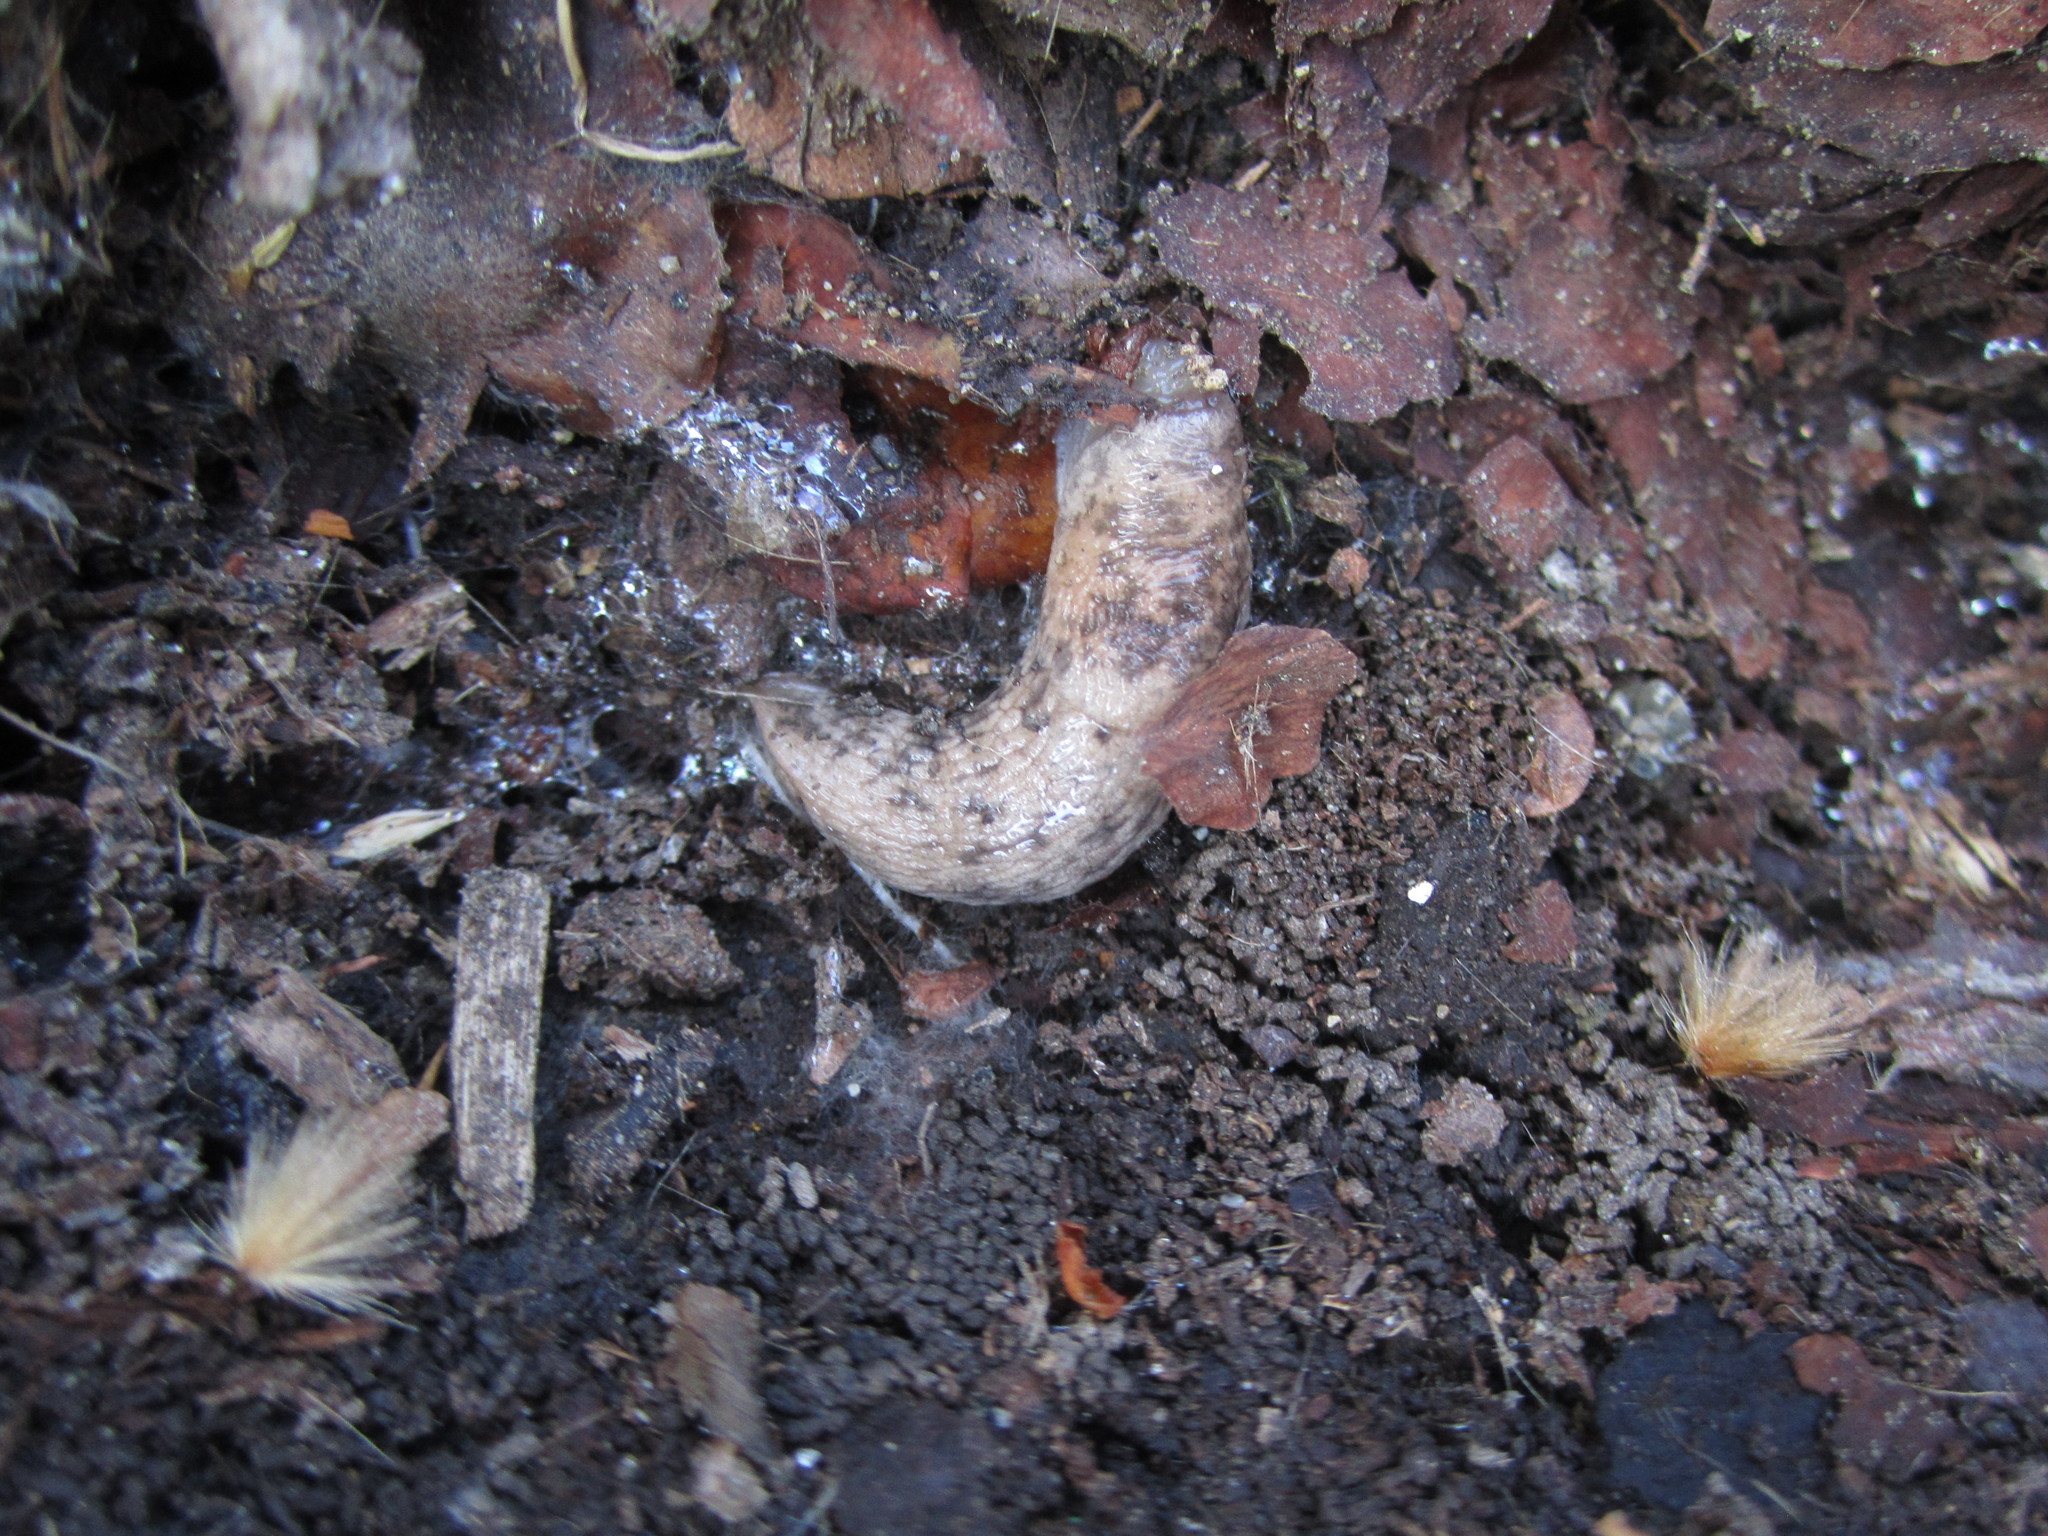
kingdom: Animalia
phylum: Mollusca
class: Gastropoda
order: Stylommatophora
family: Agriolimacidae
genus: Deroceras
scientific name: Deroceras reticulatum
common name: Gray field slug
